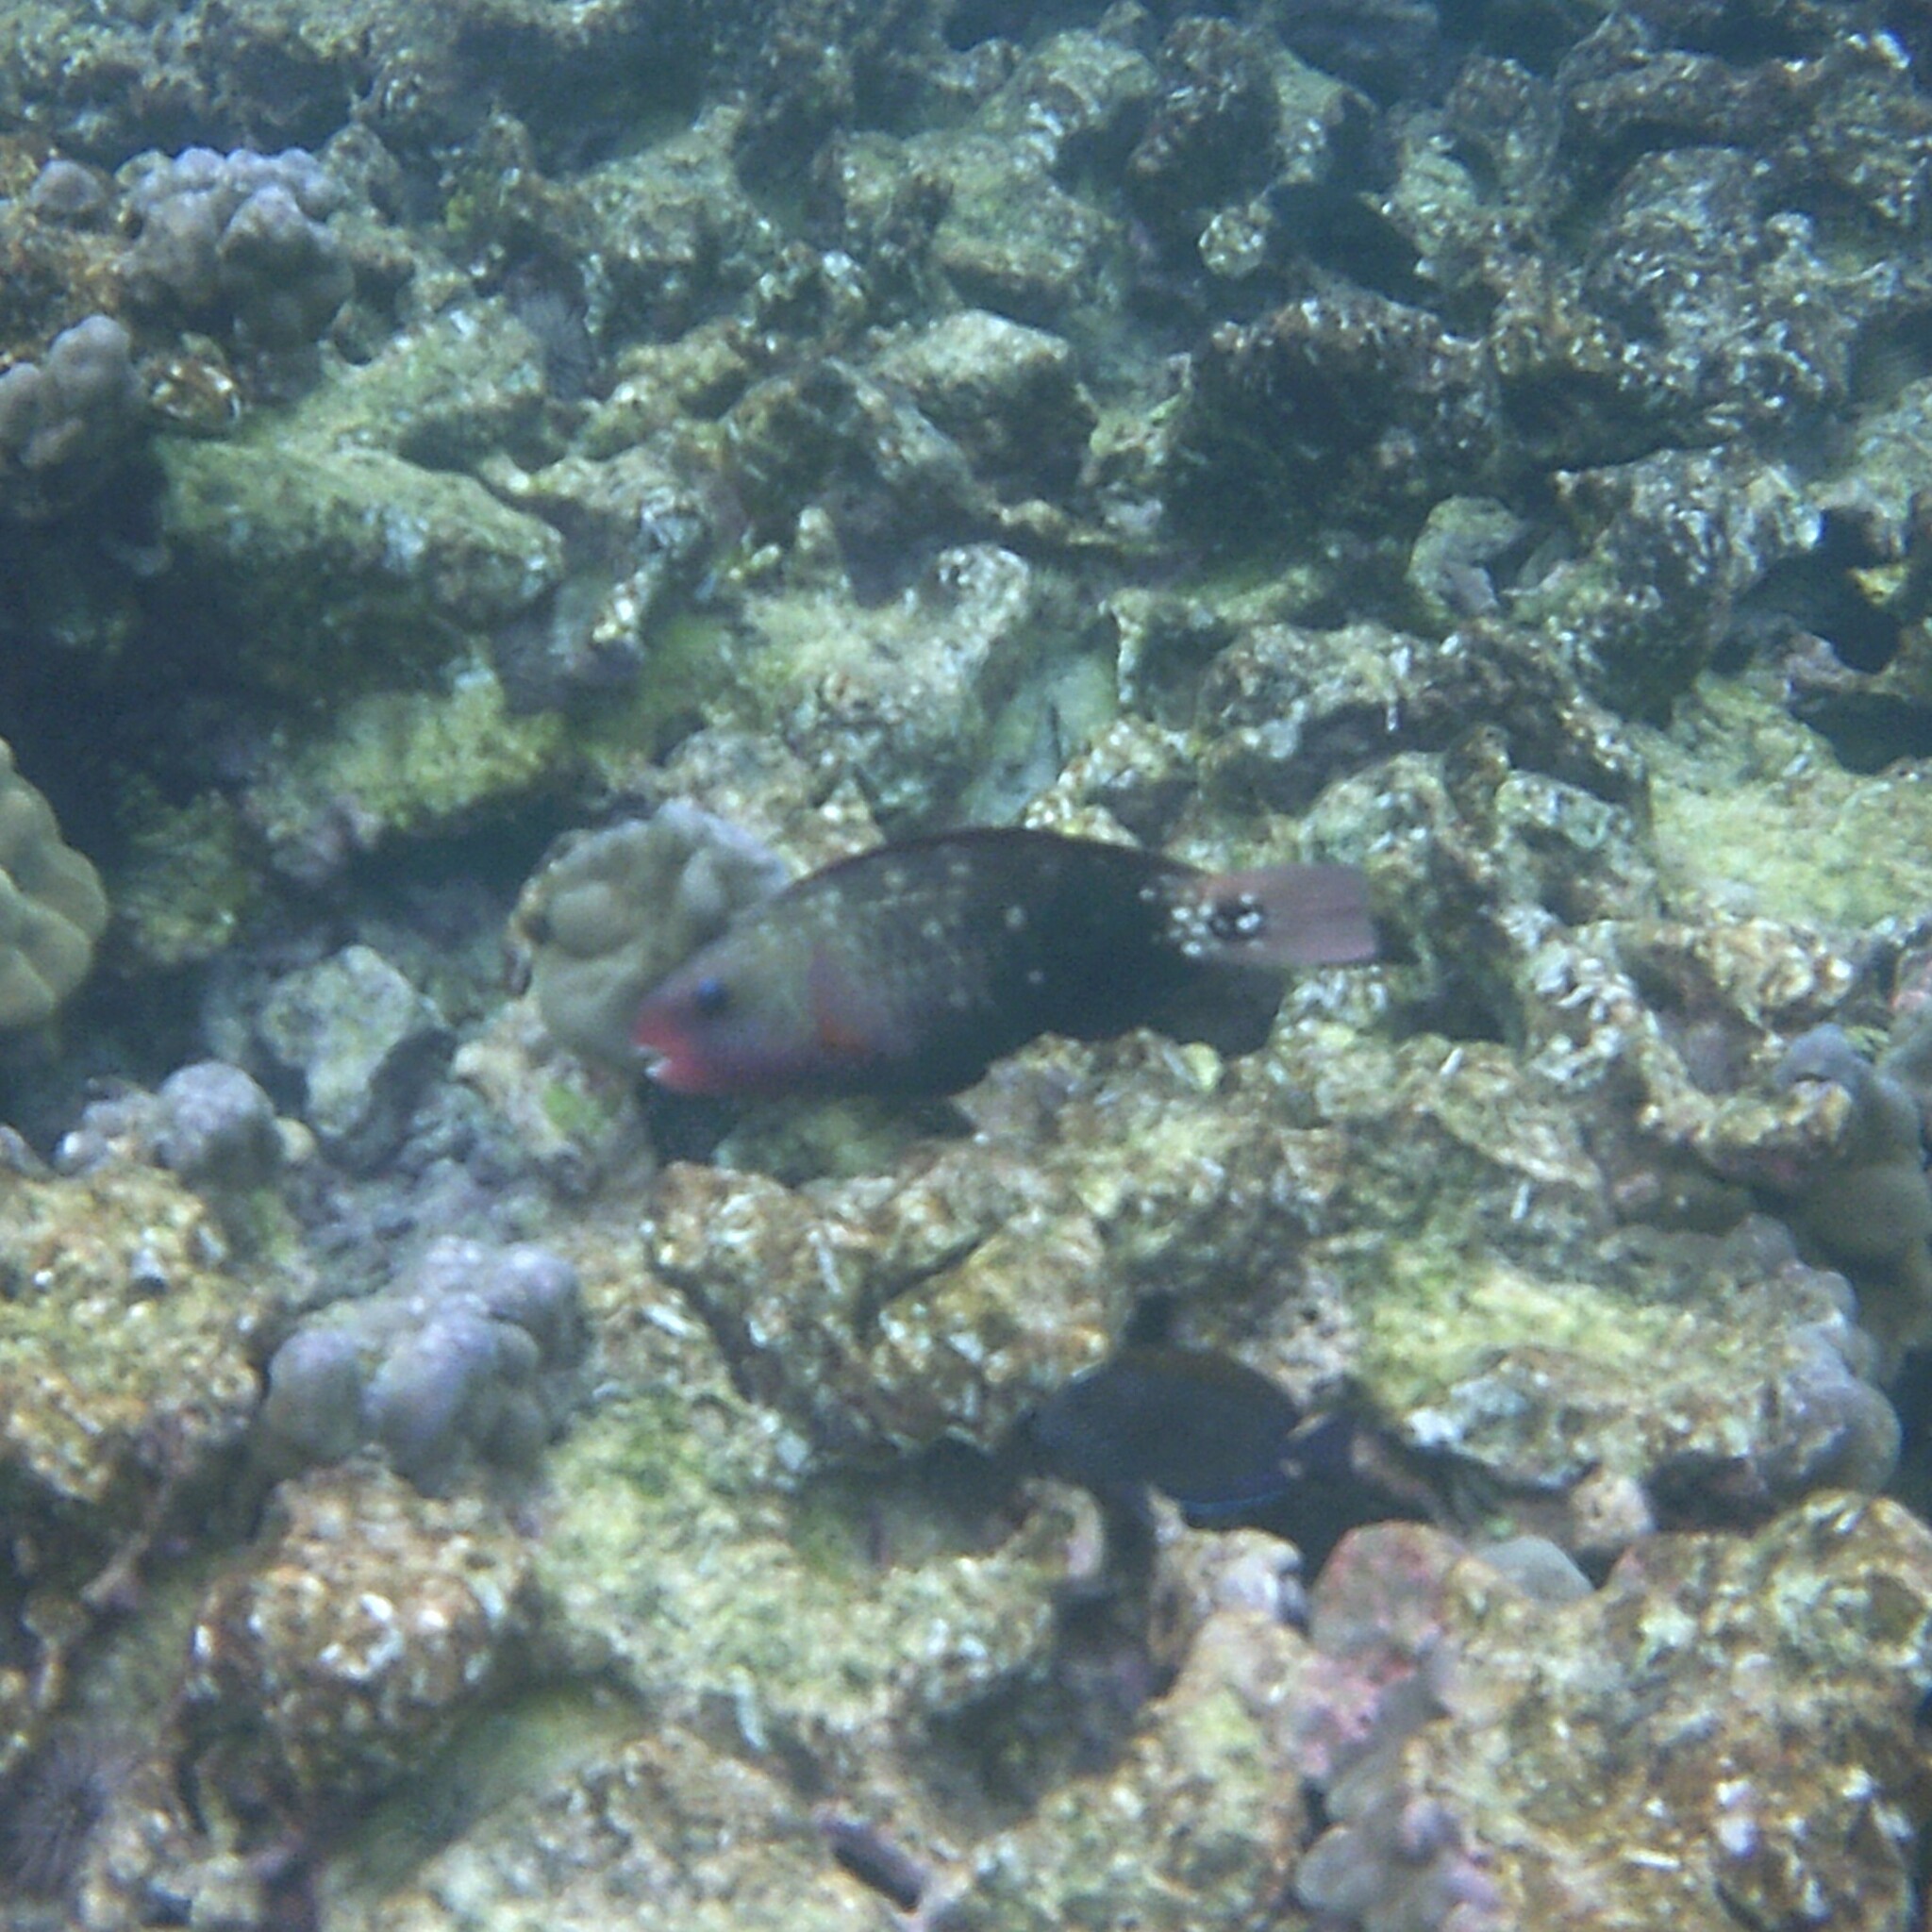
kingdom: Animalia
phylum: Chordata
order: Perciformes
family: Scaridae
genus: Chlorurus
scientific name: Chlorurus spilurus
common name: Bullethead parrotfish
